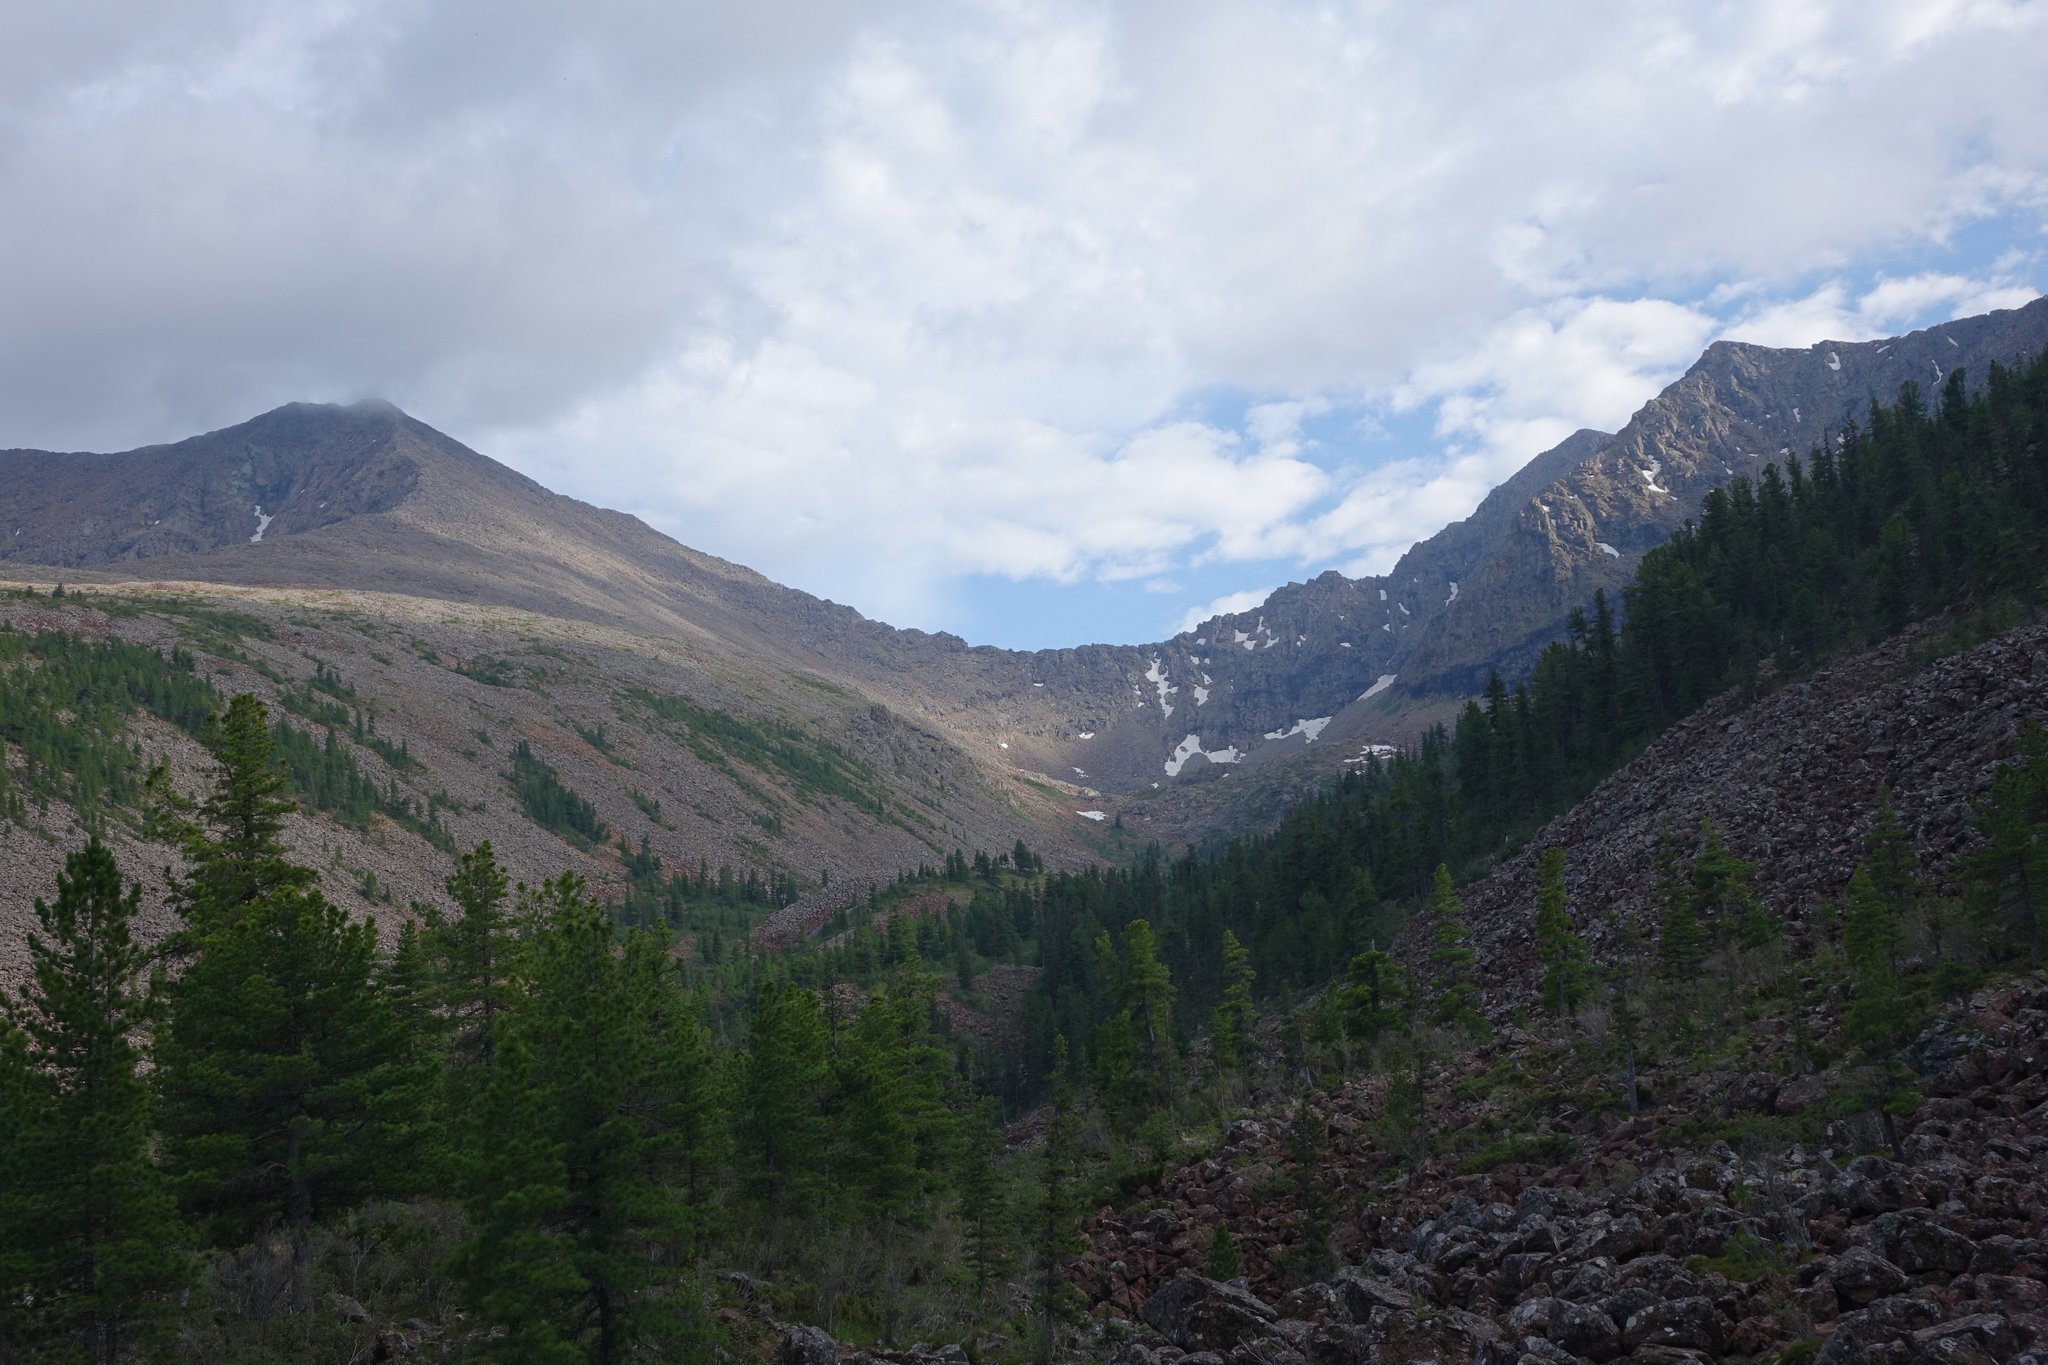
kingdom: Plantae
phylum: Tracheophyta
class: Pinopsida
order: Pinales
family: Pinaceae
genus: Pinus
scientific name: Pinus sibirica
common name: Siberian pine
